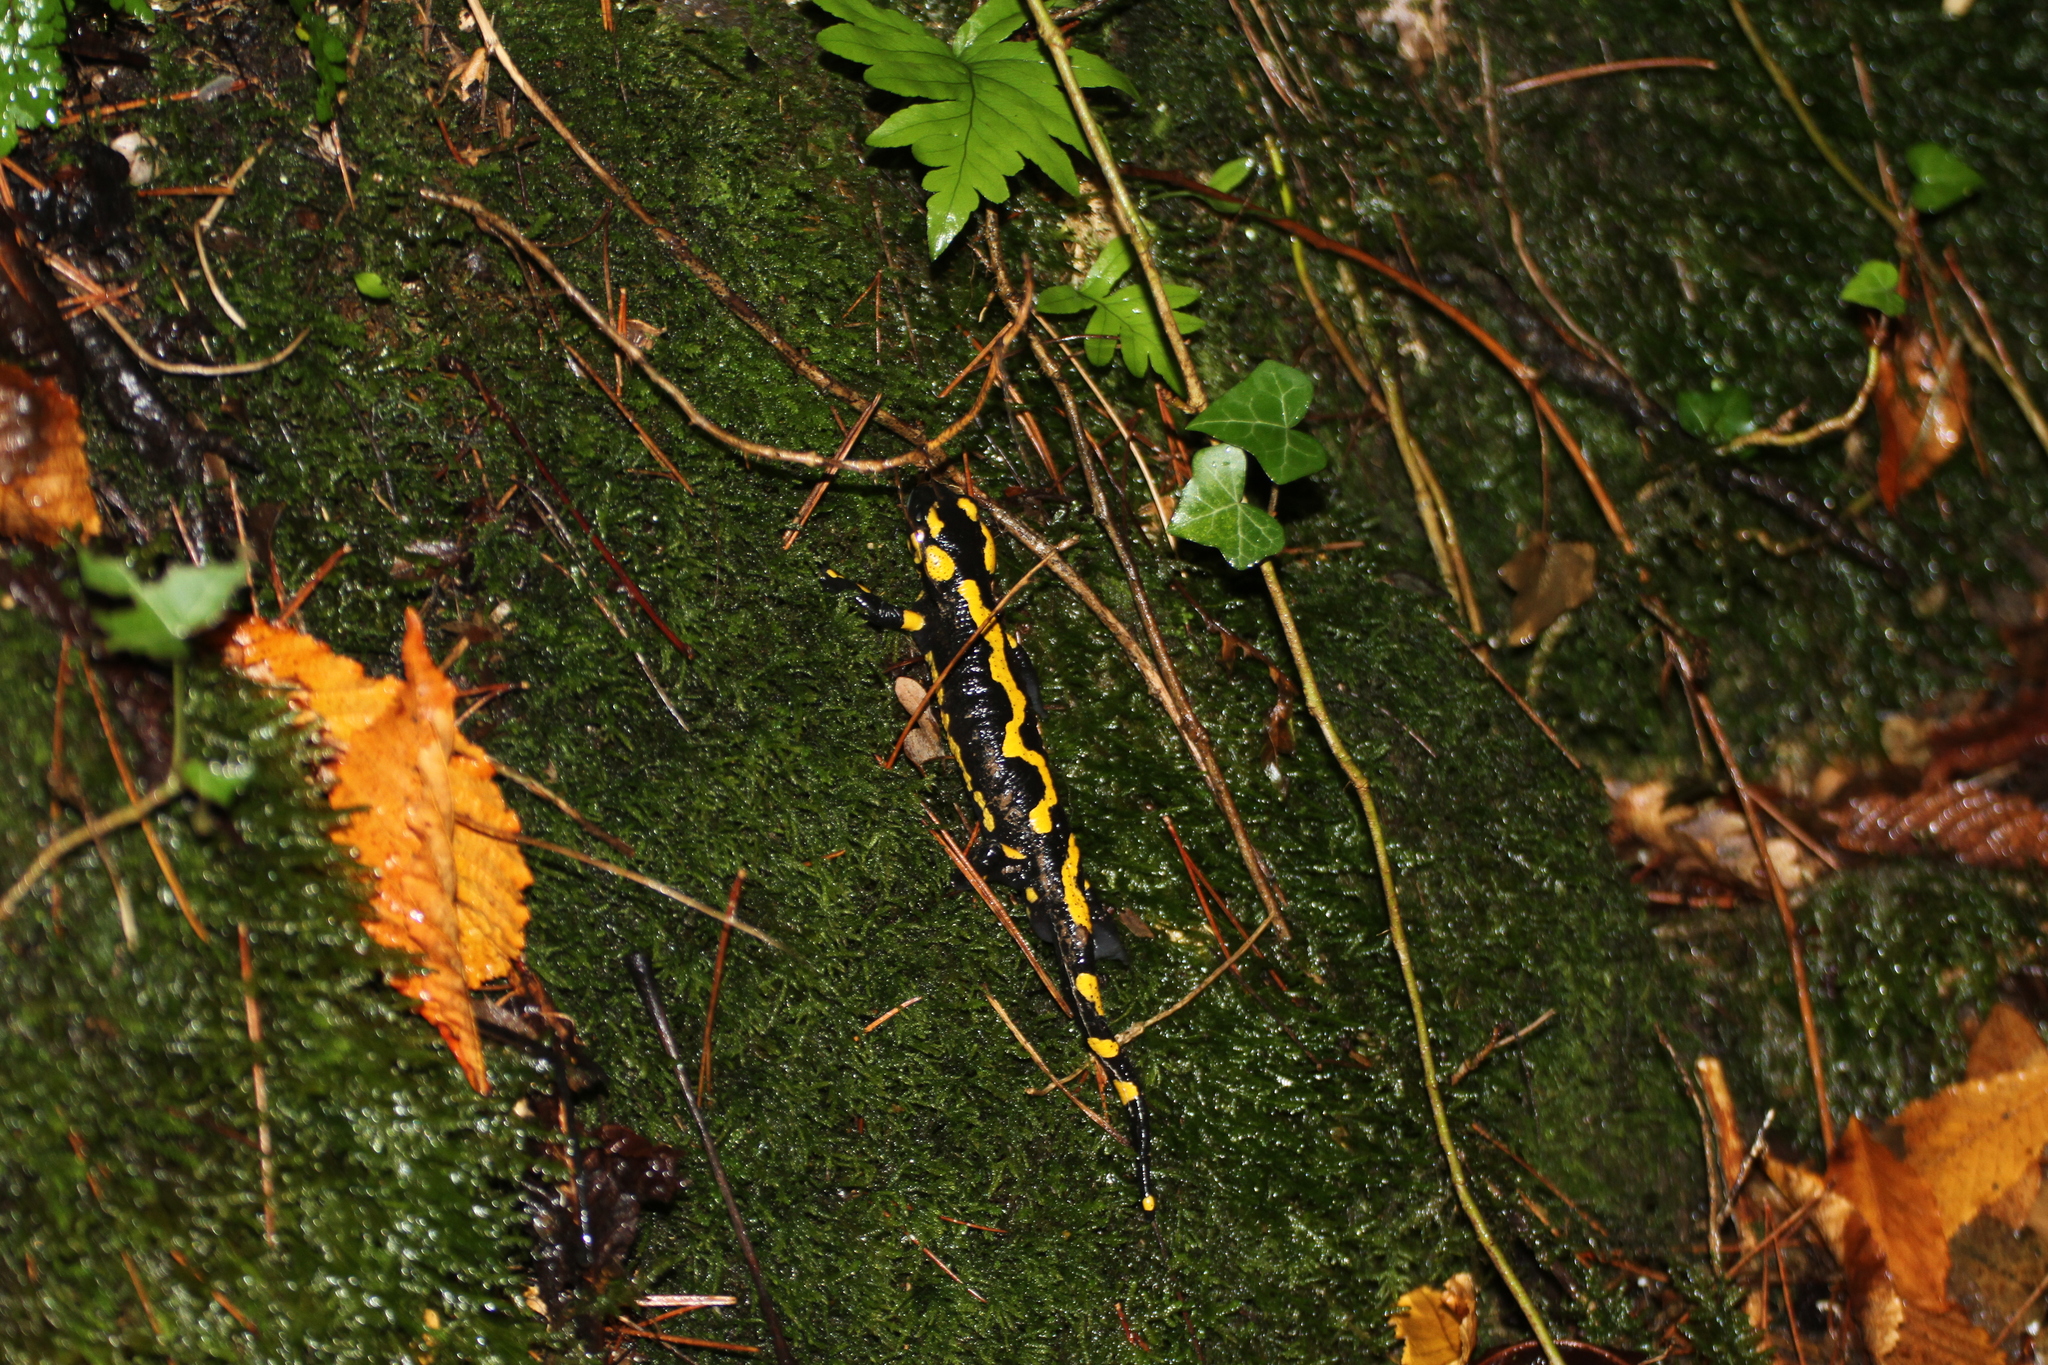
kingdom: Animalia
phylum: Chordata
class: Amphibia
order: Caudata
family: Salamandridae
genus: Salamandra
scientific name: Salamandra salamandra
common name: Fire salamander
